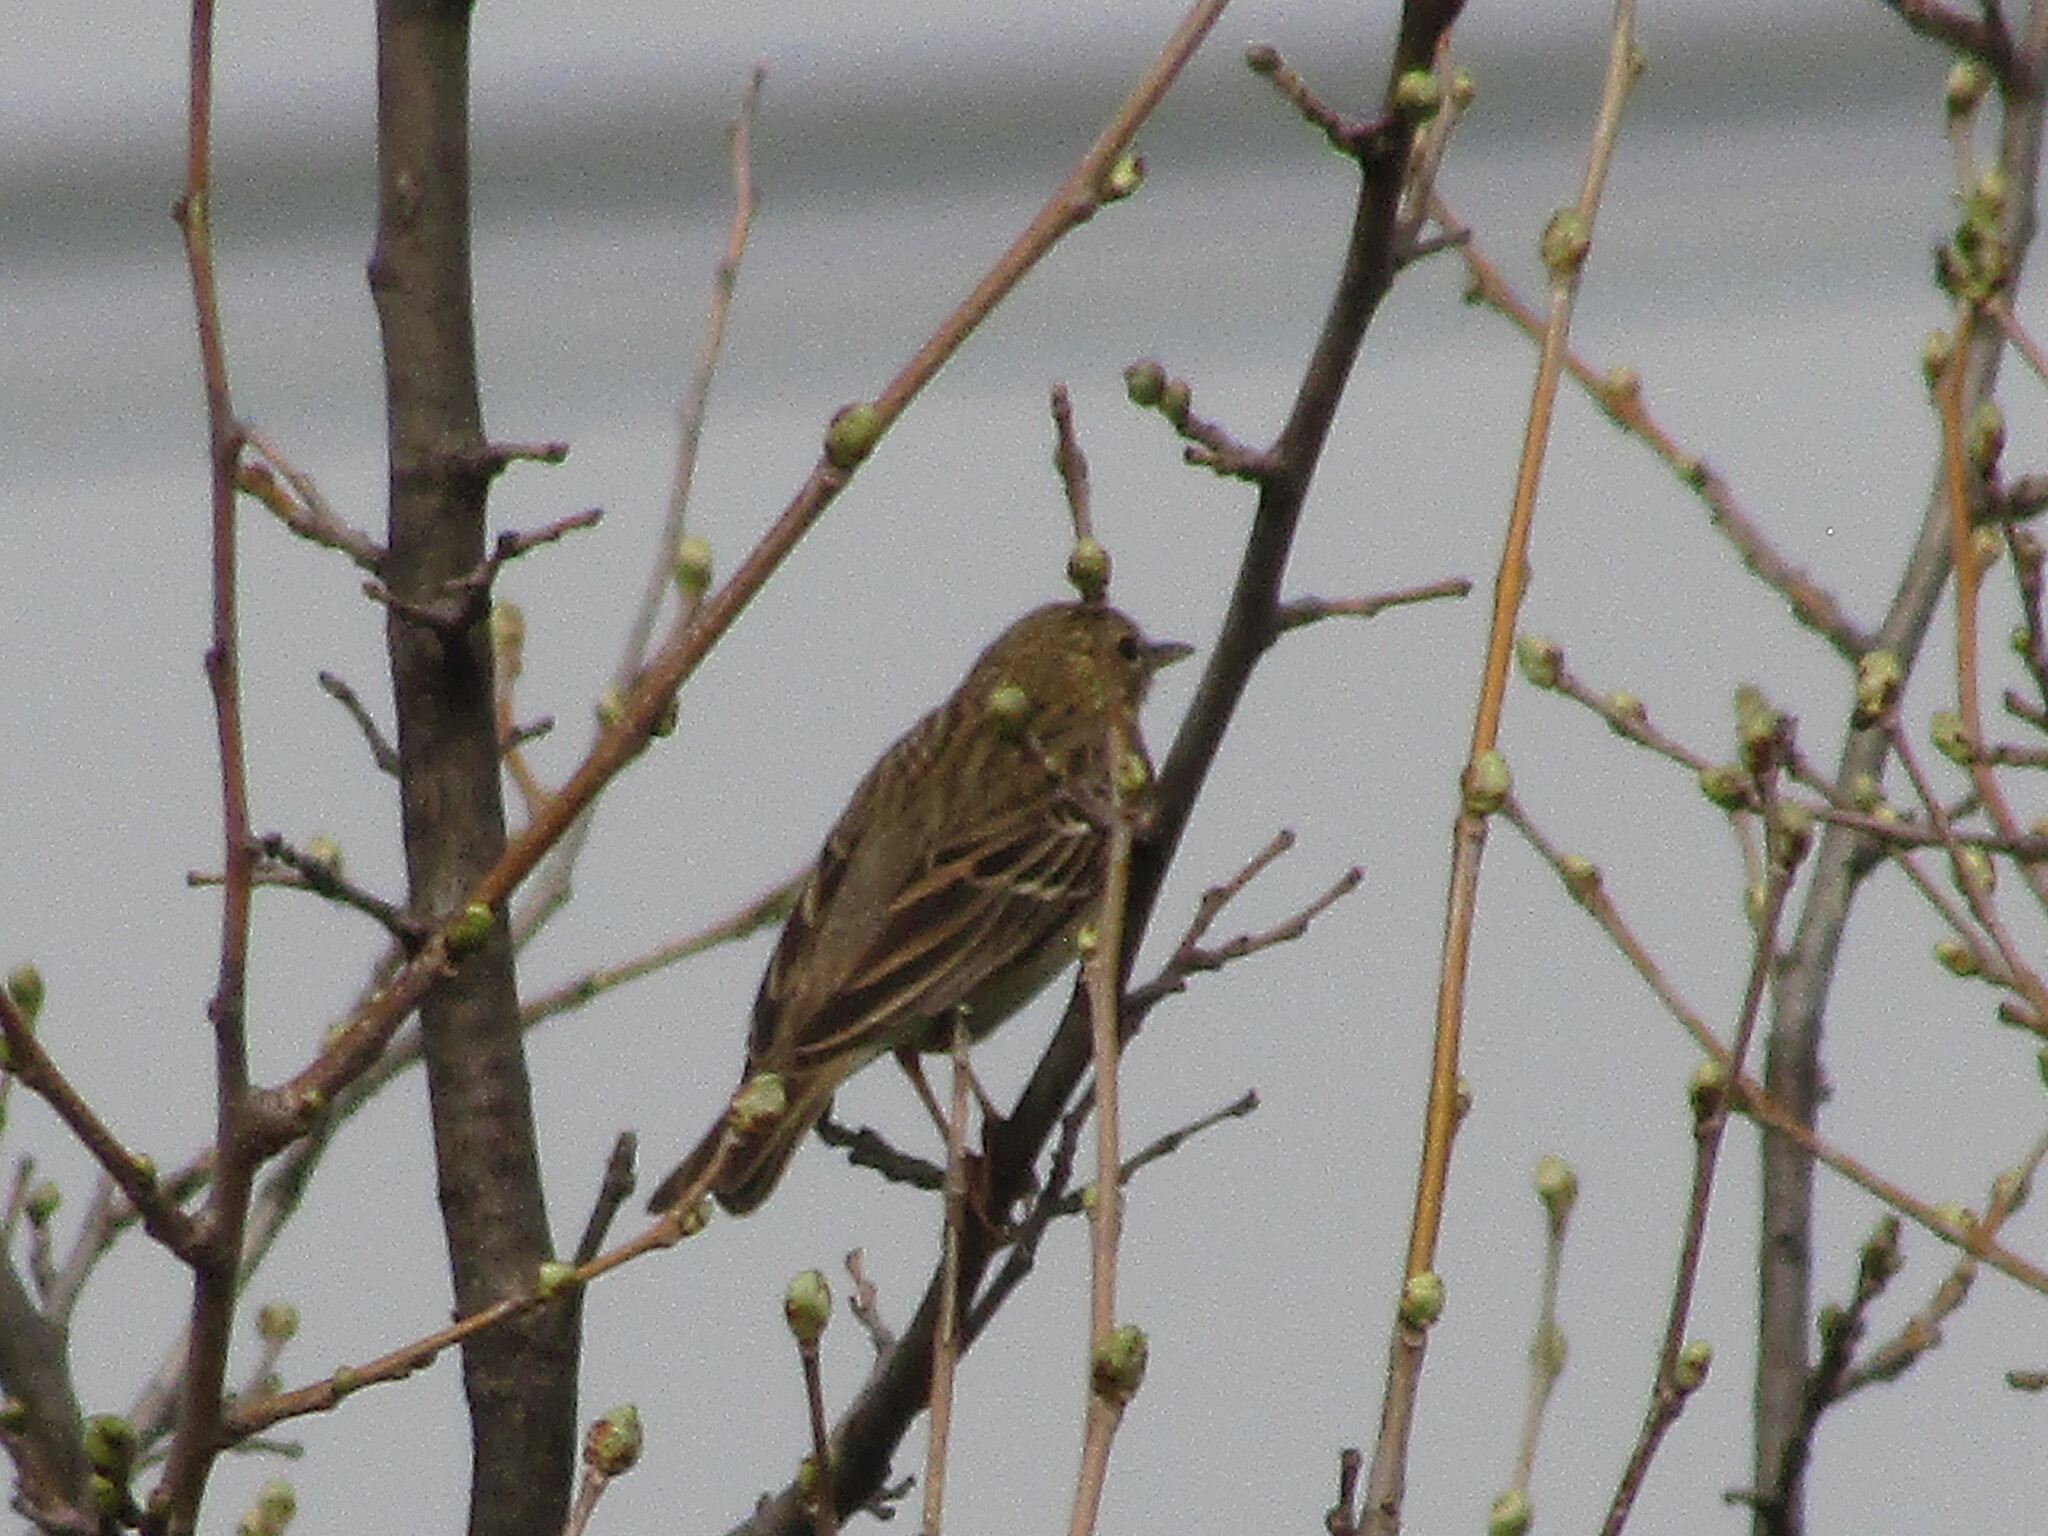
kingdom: Animalia
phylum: Chordata
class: Aves
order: Passeriformes
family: Motacillidae
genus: Anthus
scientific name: Anthus trivialis
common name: Tree pipit
